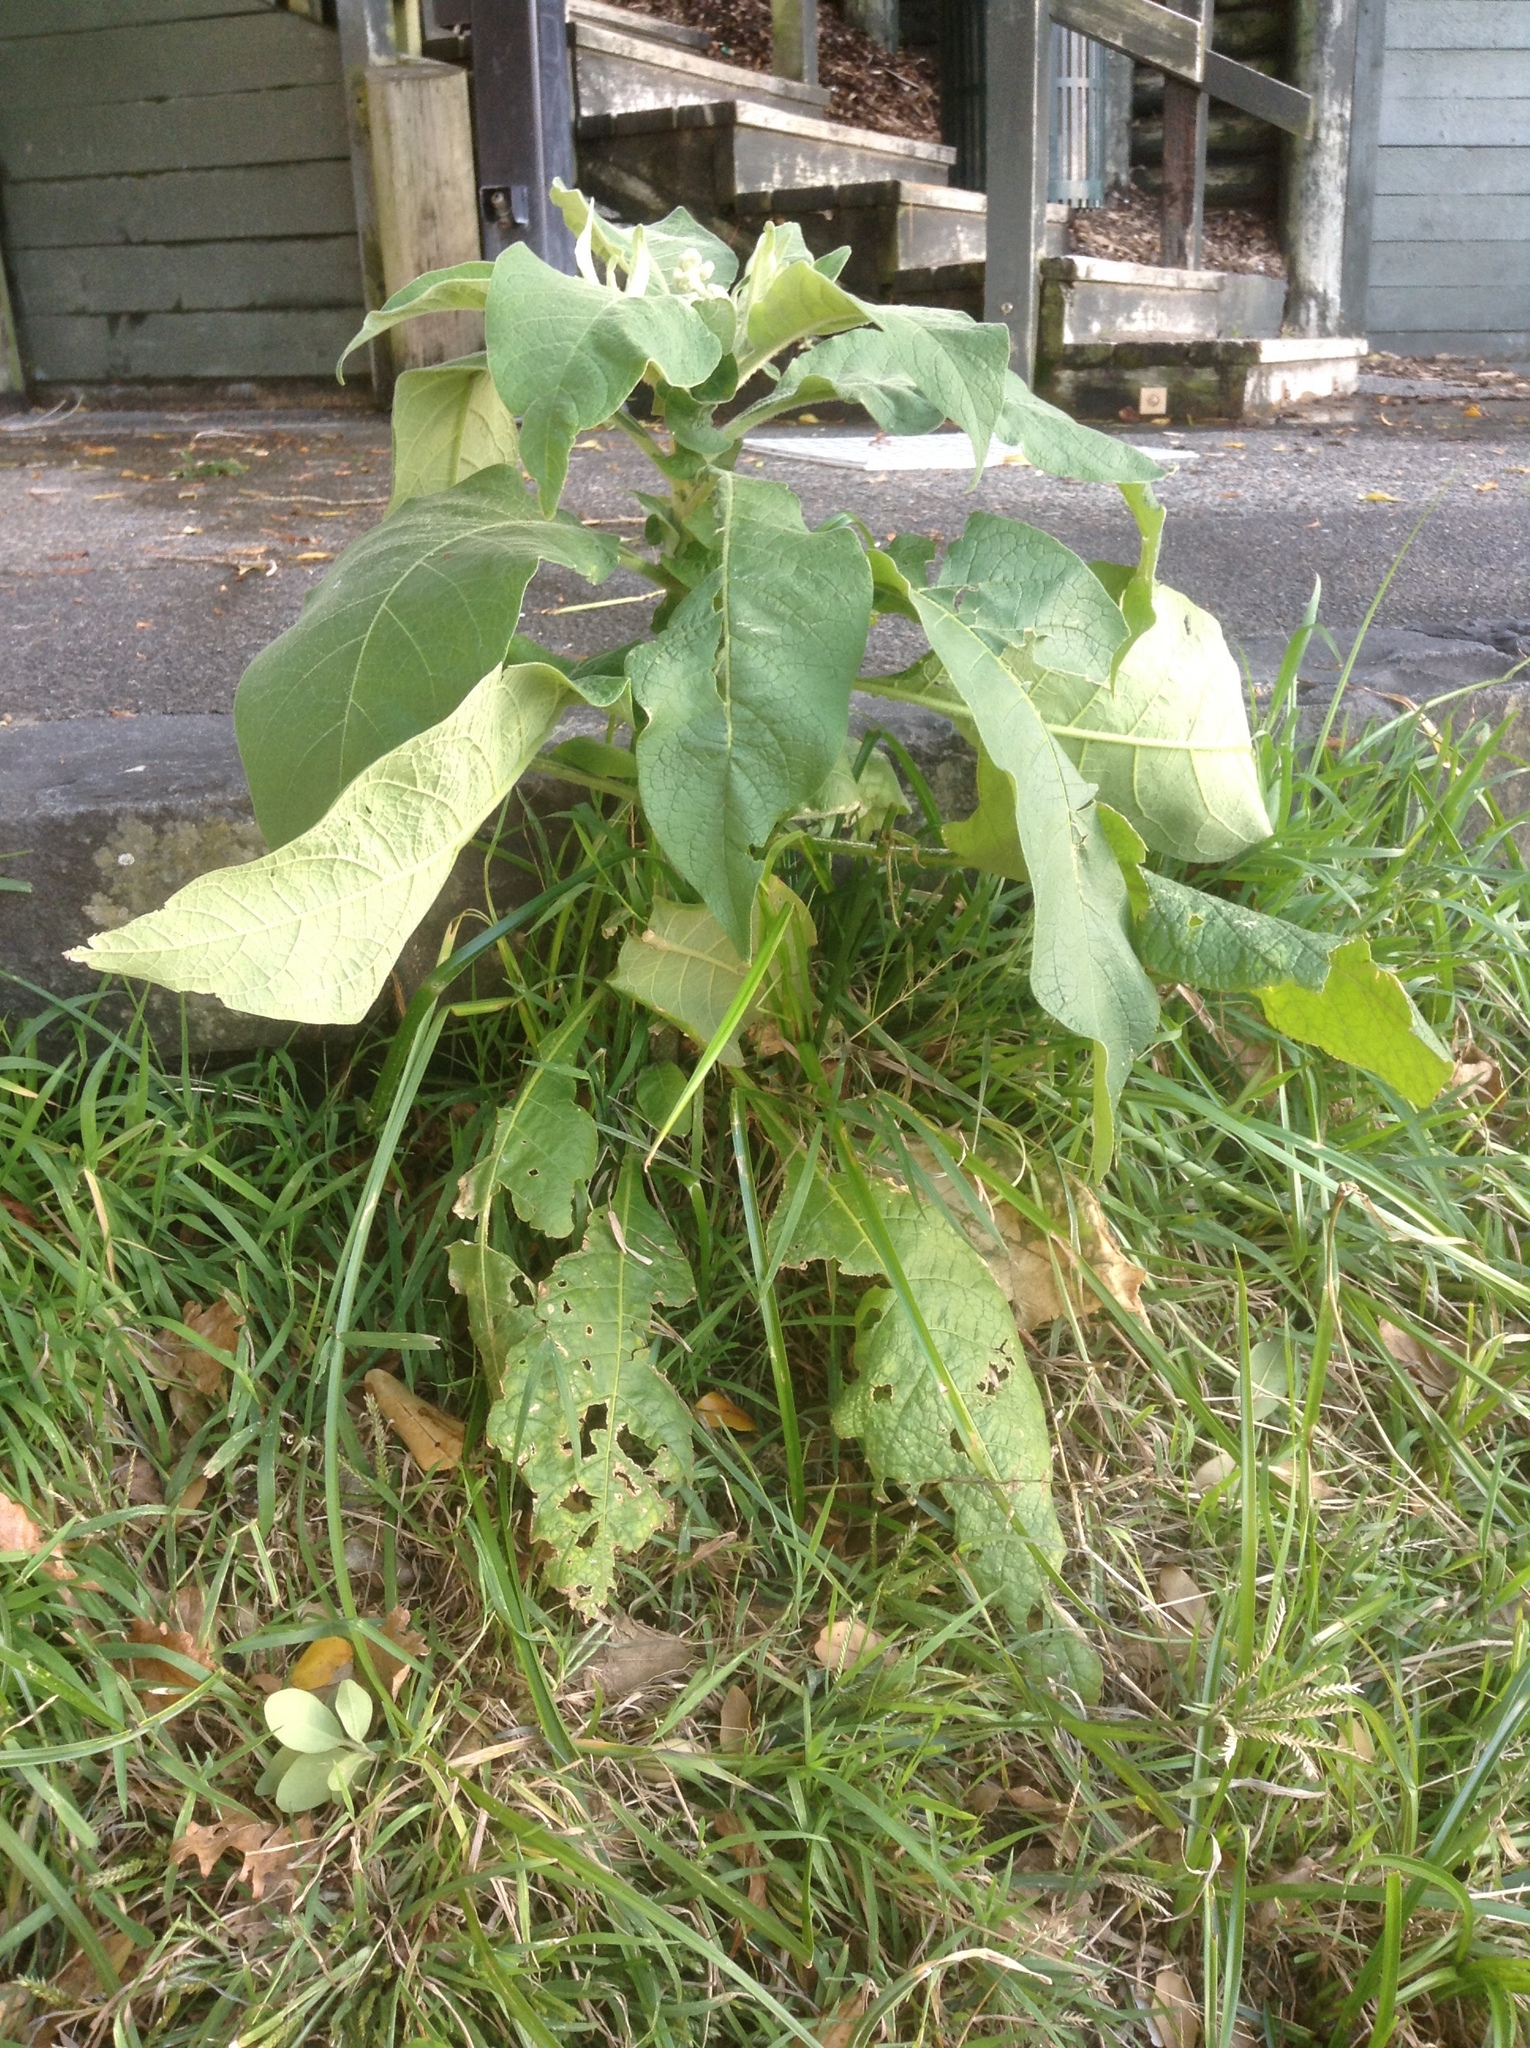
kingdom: Plantae
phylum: Tracheophyta
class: Magnoliopsida
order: Solanales
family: Solanaceae
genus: Solanum
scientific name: Solanum mauritianum
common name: Earleaf nightshade
